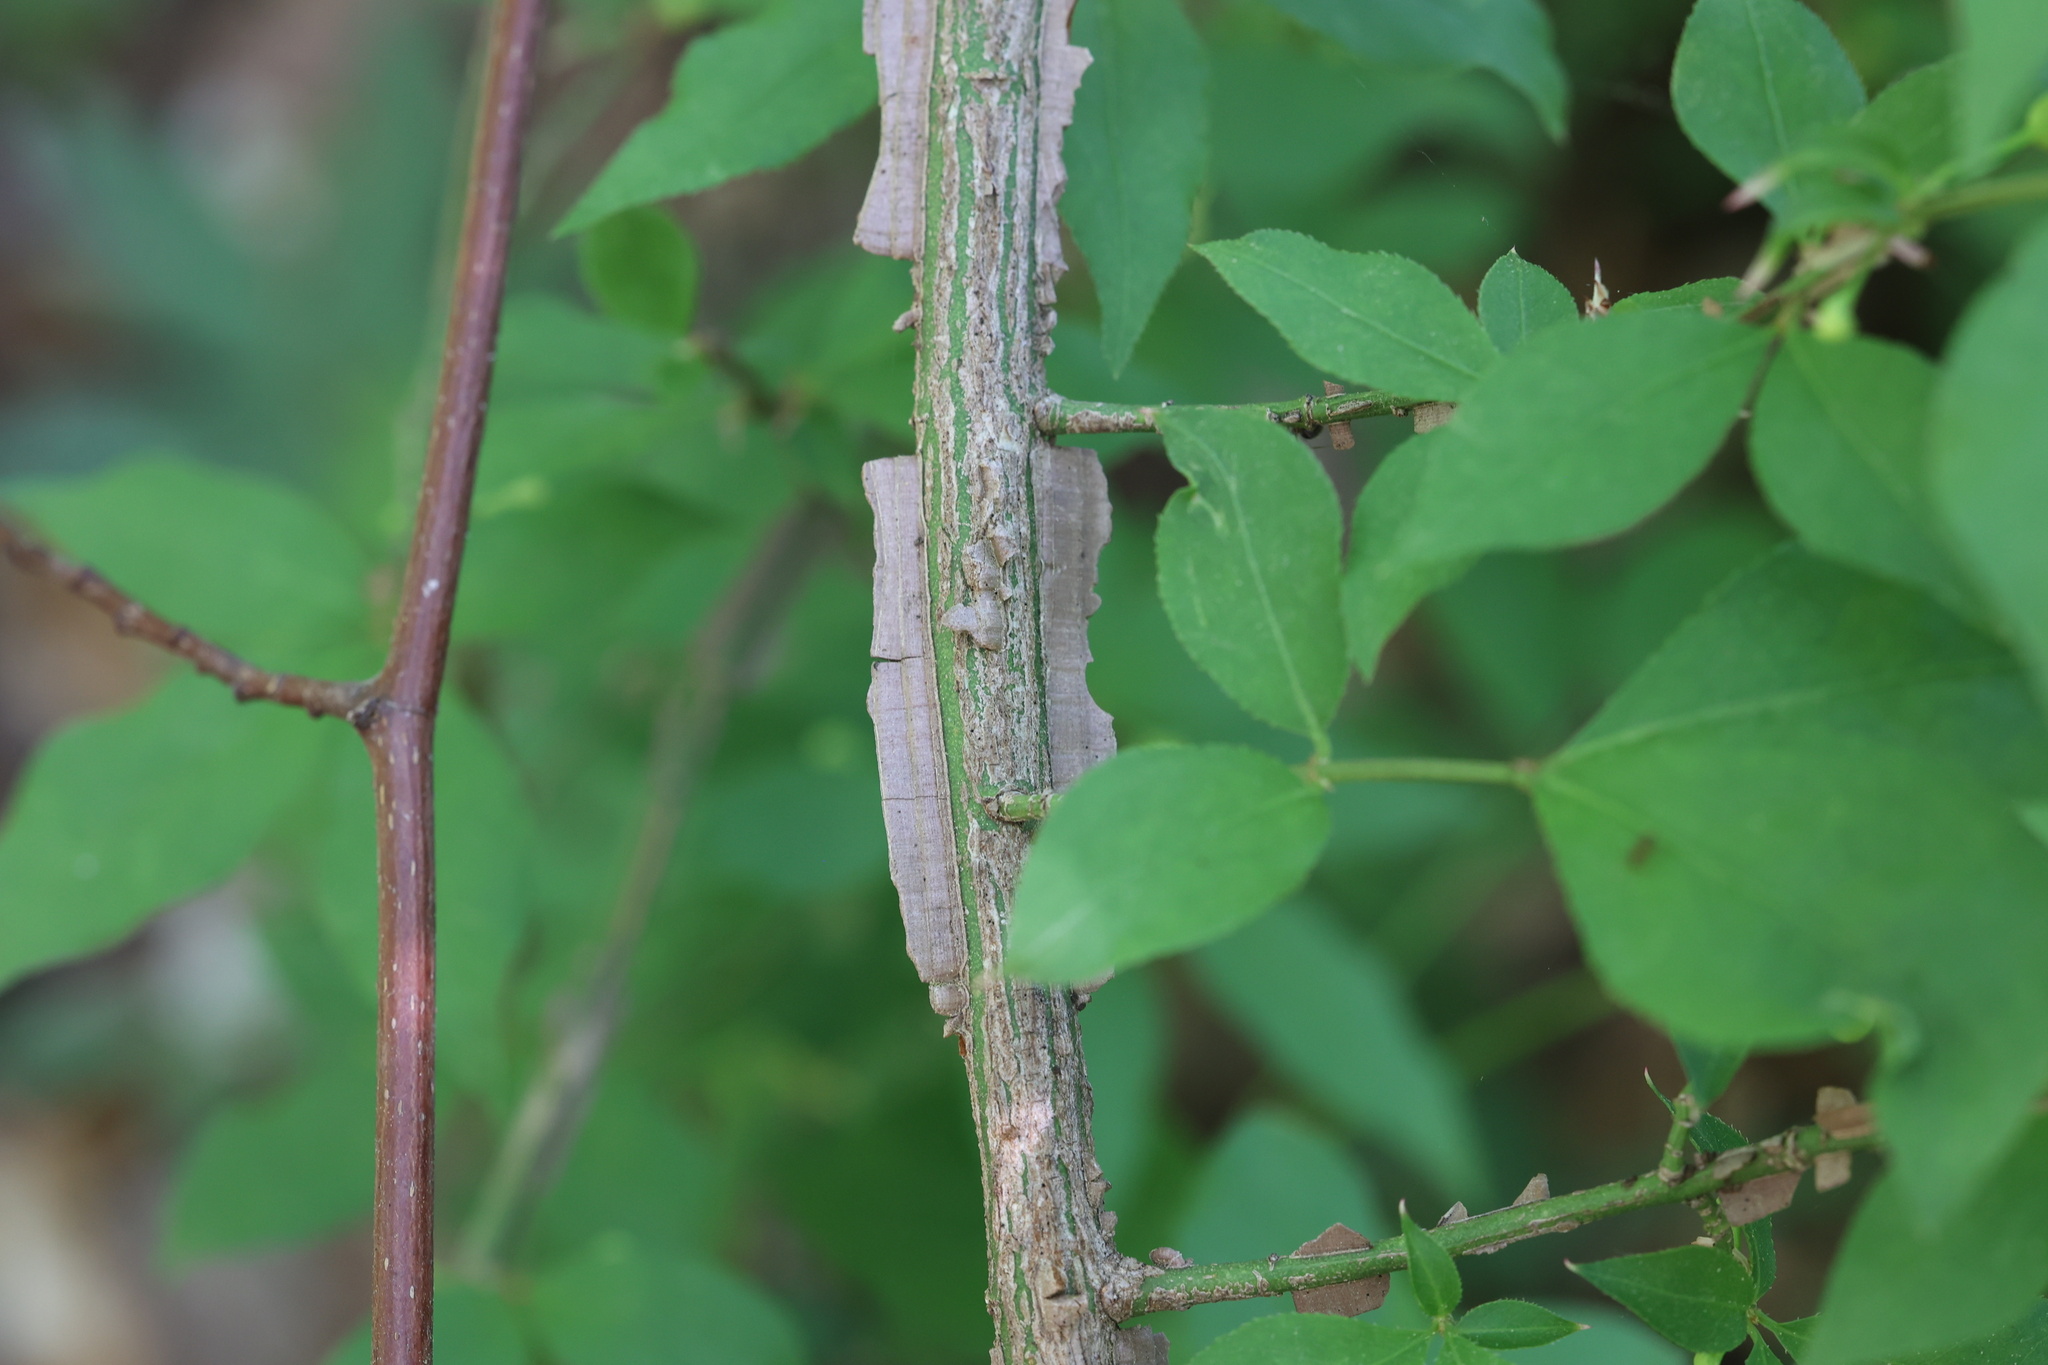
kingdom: Plantae
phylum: Tracheophyta
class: Magnoliopsida
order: Celastrales
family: Celastraceae
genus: Euonymus
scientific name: Euonymus alatus
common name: Winged euonymus
